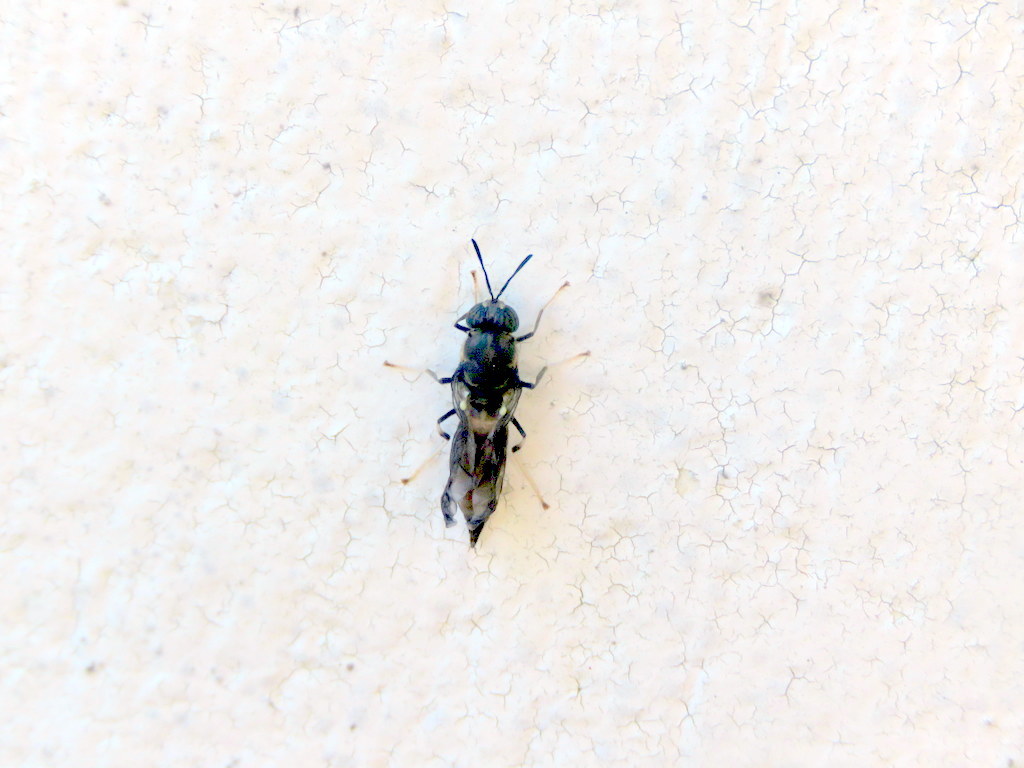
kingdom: Animalia
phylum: Arthropoda
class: Insecta
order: Diptera
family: Stratiomyidae
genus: Hermetia
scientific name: Hermetia illucens
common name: Black soldier fly
